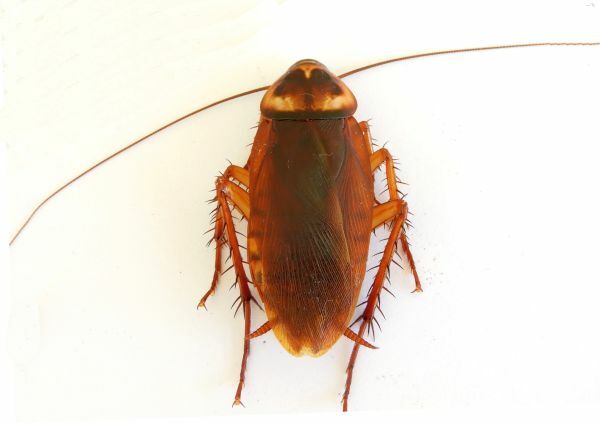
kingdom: Animalia
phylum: Arthropoda
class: Insecta
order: Blattodea
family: Blattidae
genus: Periplaneta
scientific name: Periplaneta americana
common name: American cockroach
